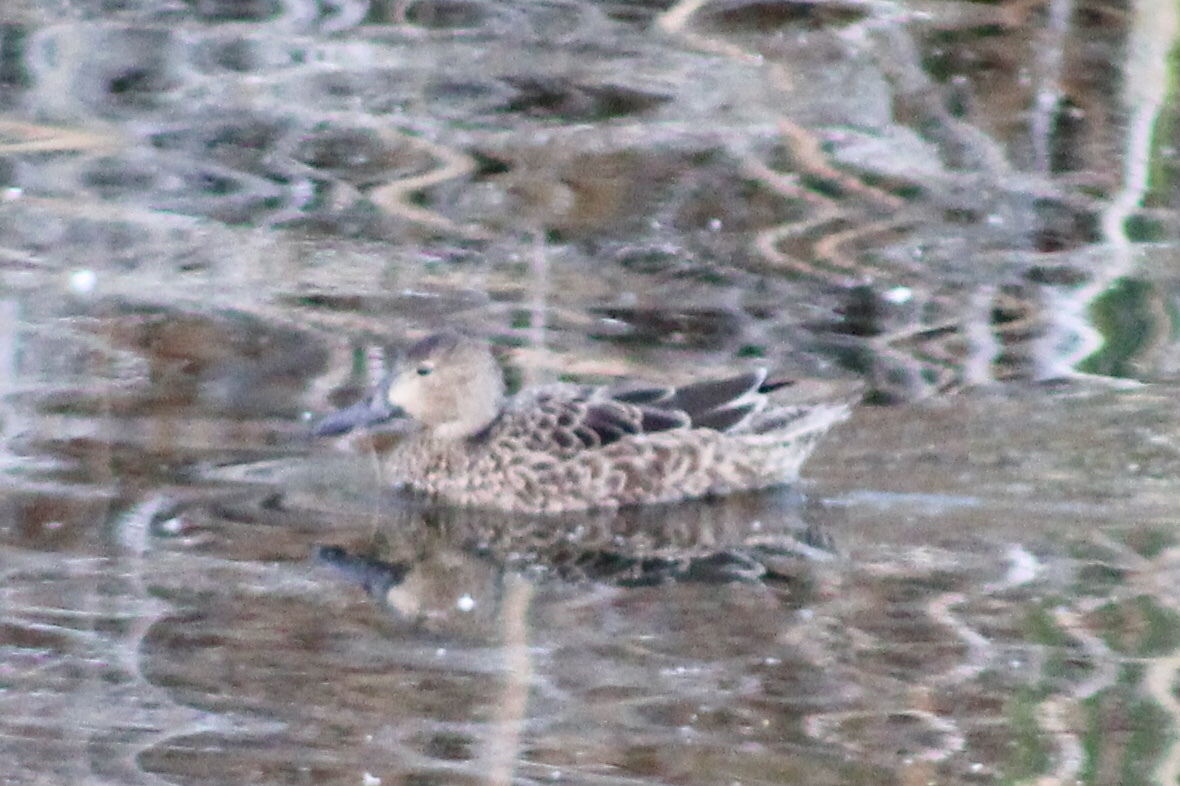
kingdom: Animalia
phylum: Chordata
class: Aves
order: Anseriformes
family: Anatidae
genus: Spatula
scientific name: Spatula discors
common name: Blue-winged teal
